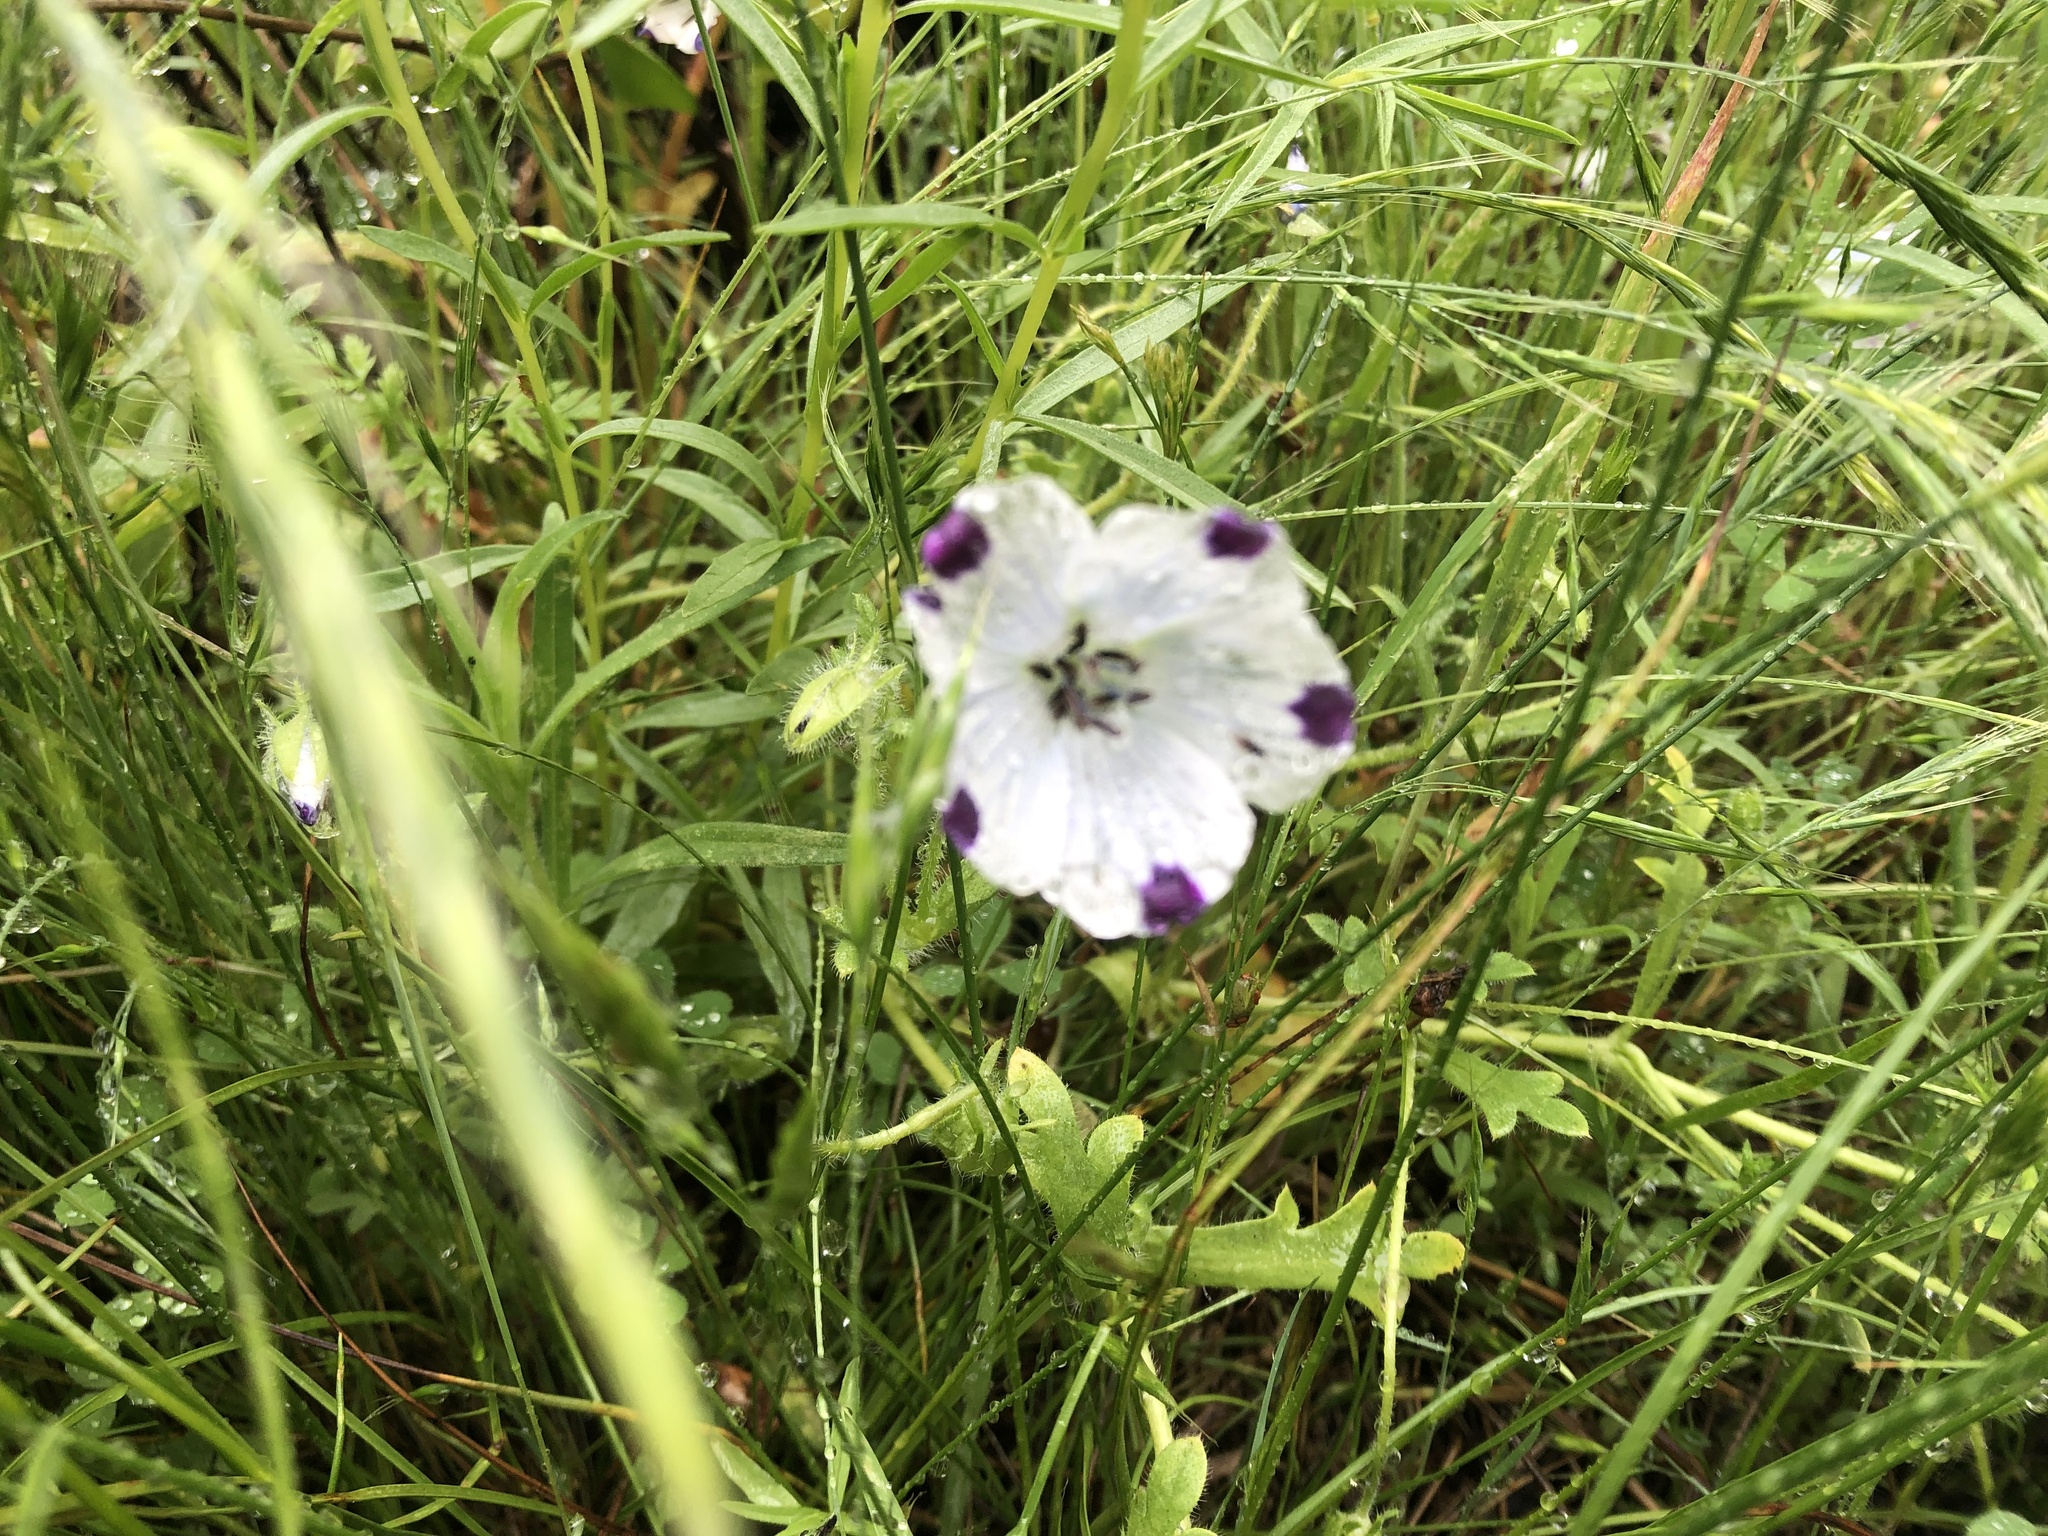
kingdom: Plantae
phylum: Tracheophyta
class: Magnoliopsida
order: Boraginales
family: Hydrophyllaceae
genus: Nemophila
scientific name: Nemophila maculata
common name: Fivespot
